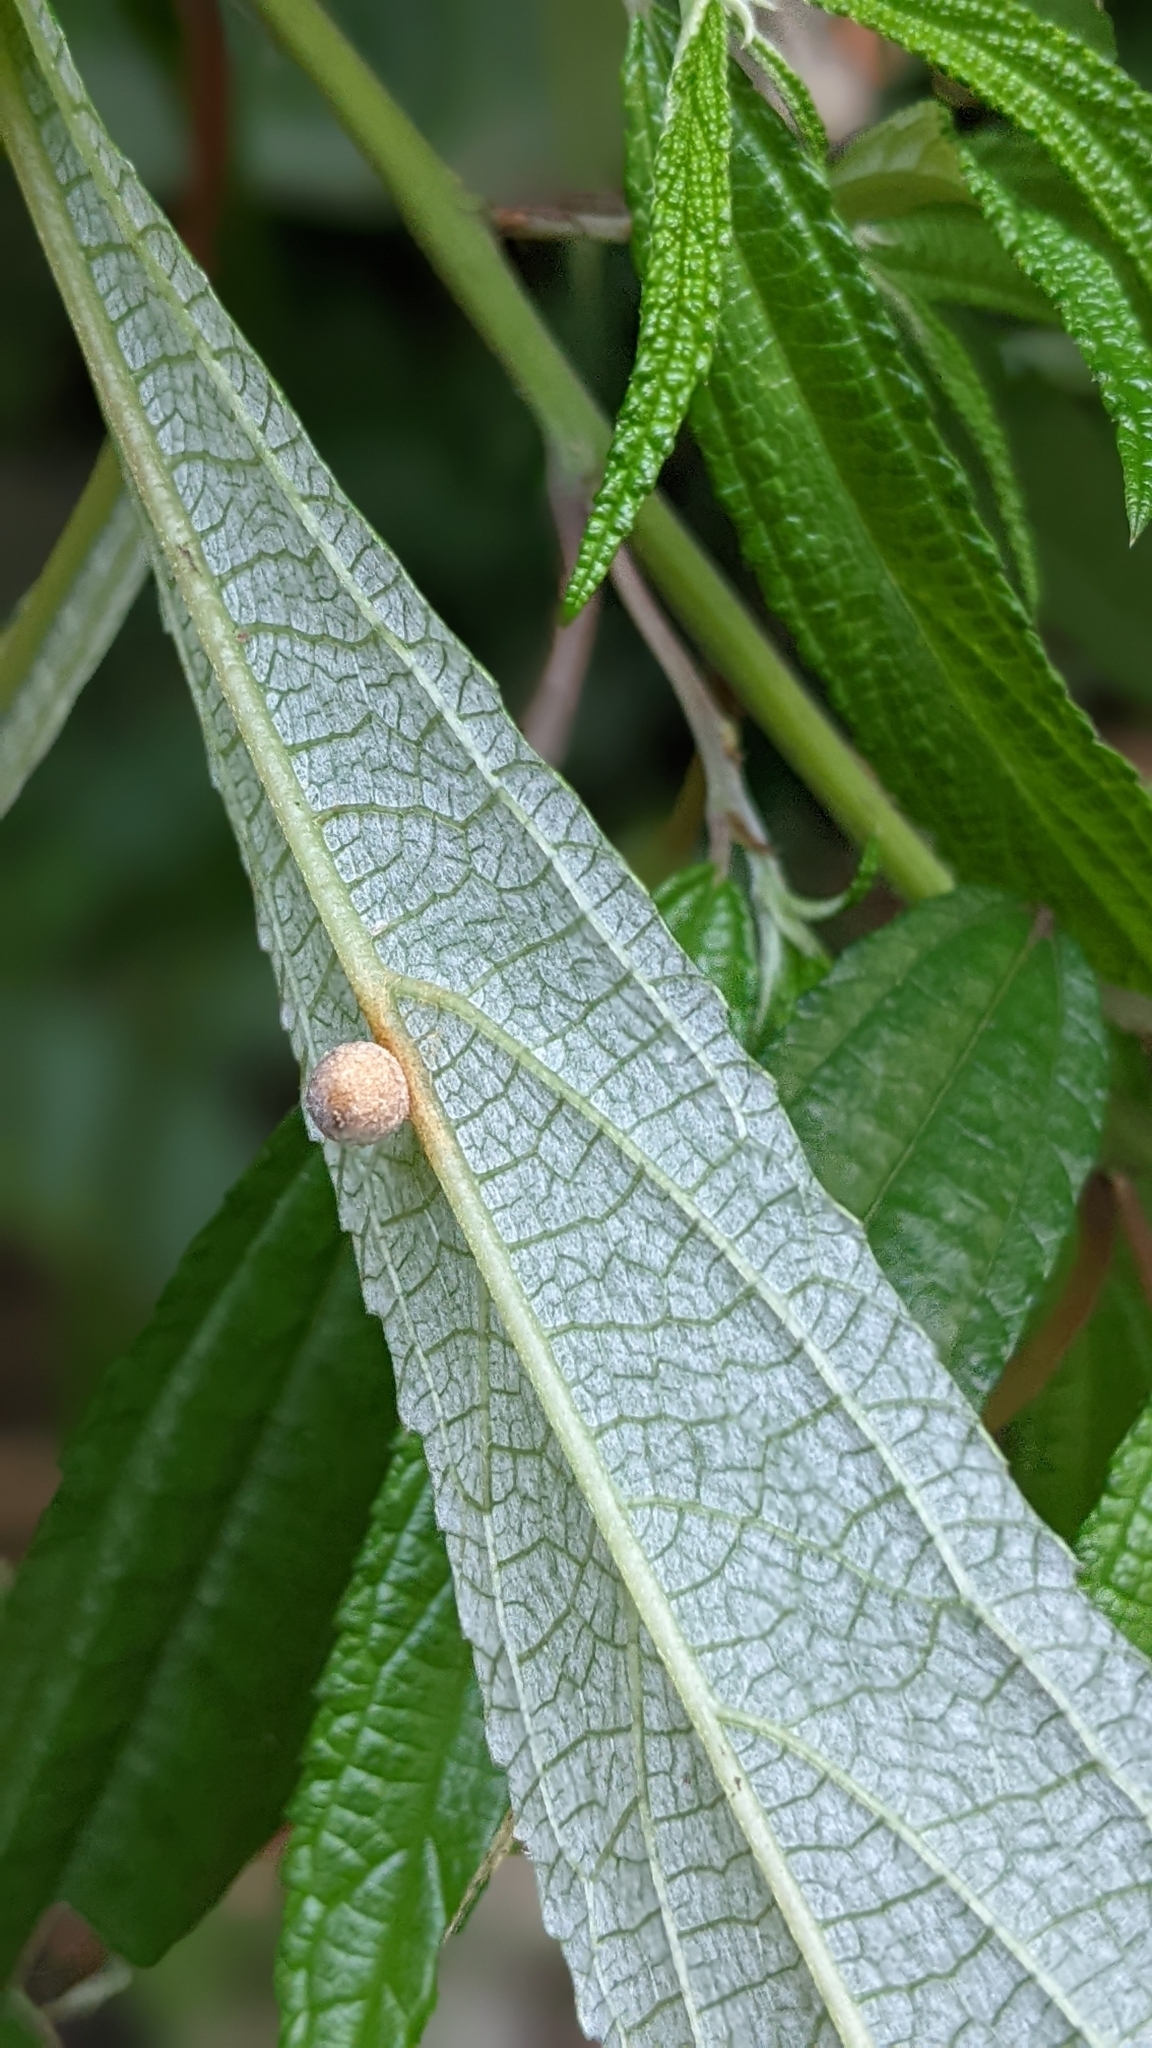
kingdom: Plantae
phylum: Tracheophyta
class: Magnoliopsida
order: Rosales
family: Urticaceae
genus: Debregeasia
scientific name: Debregeasia orientalis
